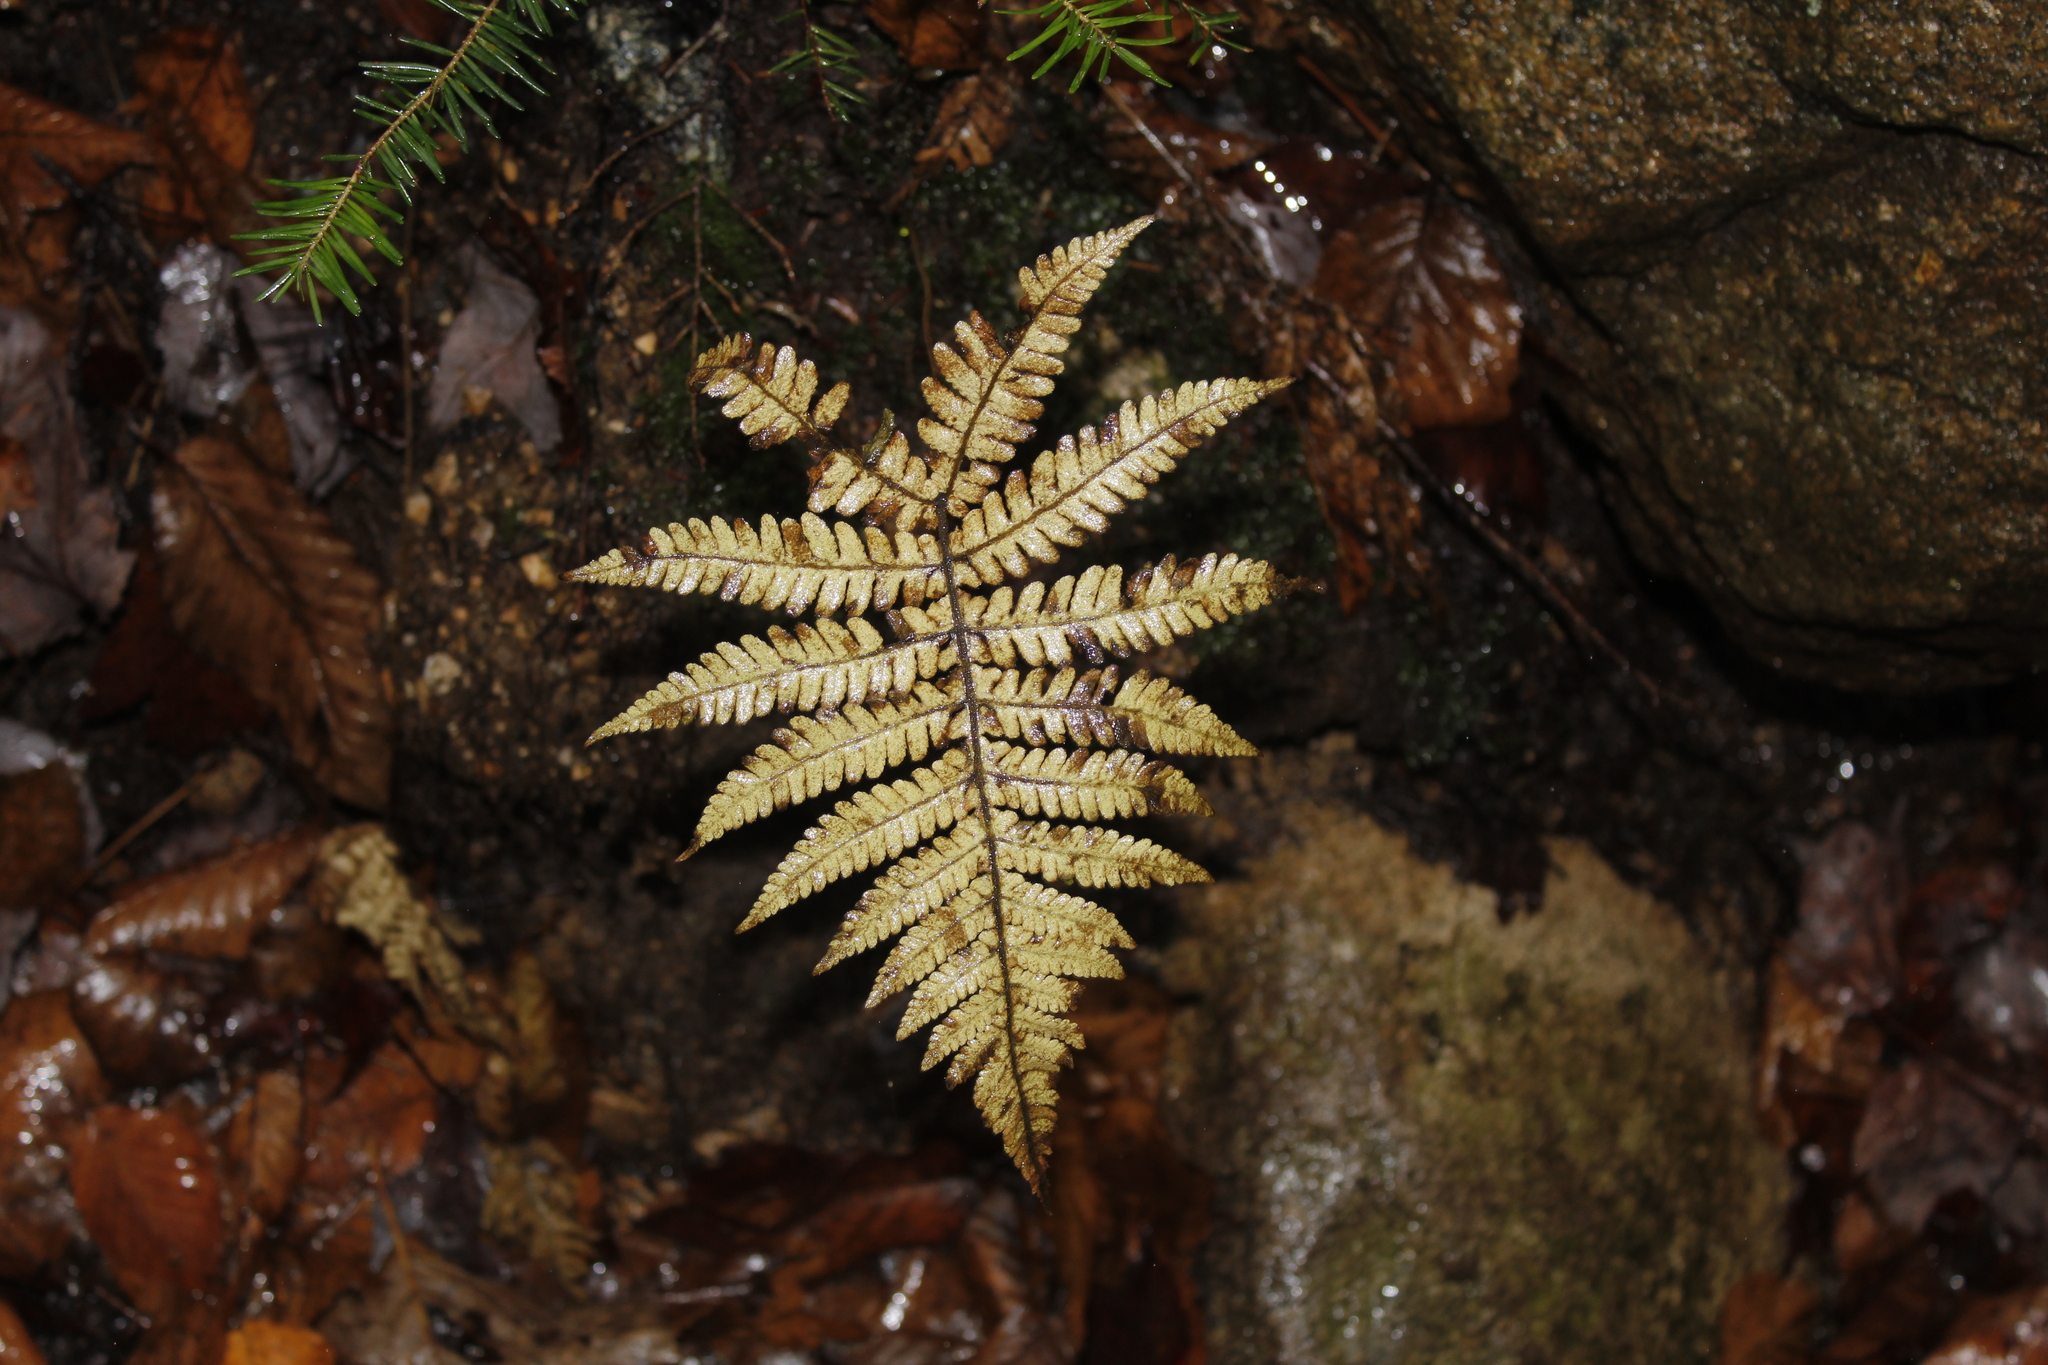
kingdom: Plantae
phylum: Tracheophyta
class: Polypodiopsida
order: Polypodiales
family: Thelypteridaceae
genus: Phegopteris
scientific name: Phegopteris connectilis
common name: Beech fern
